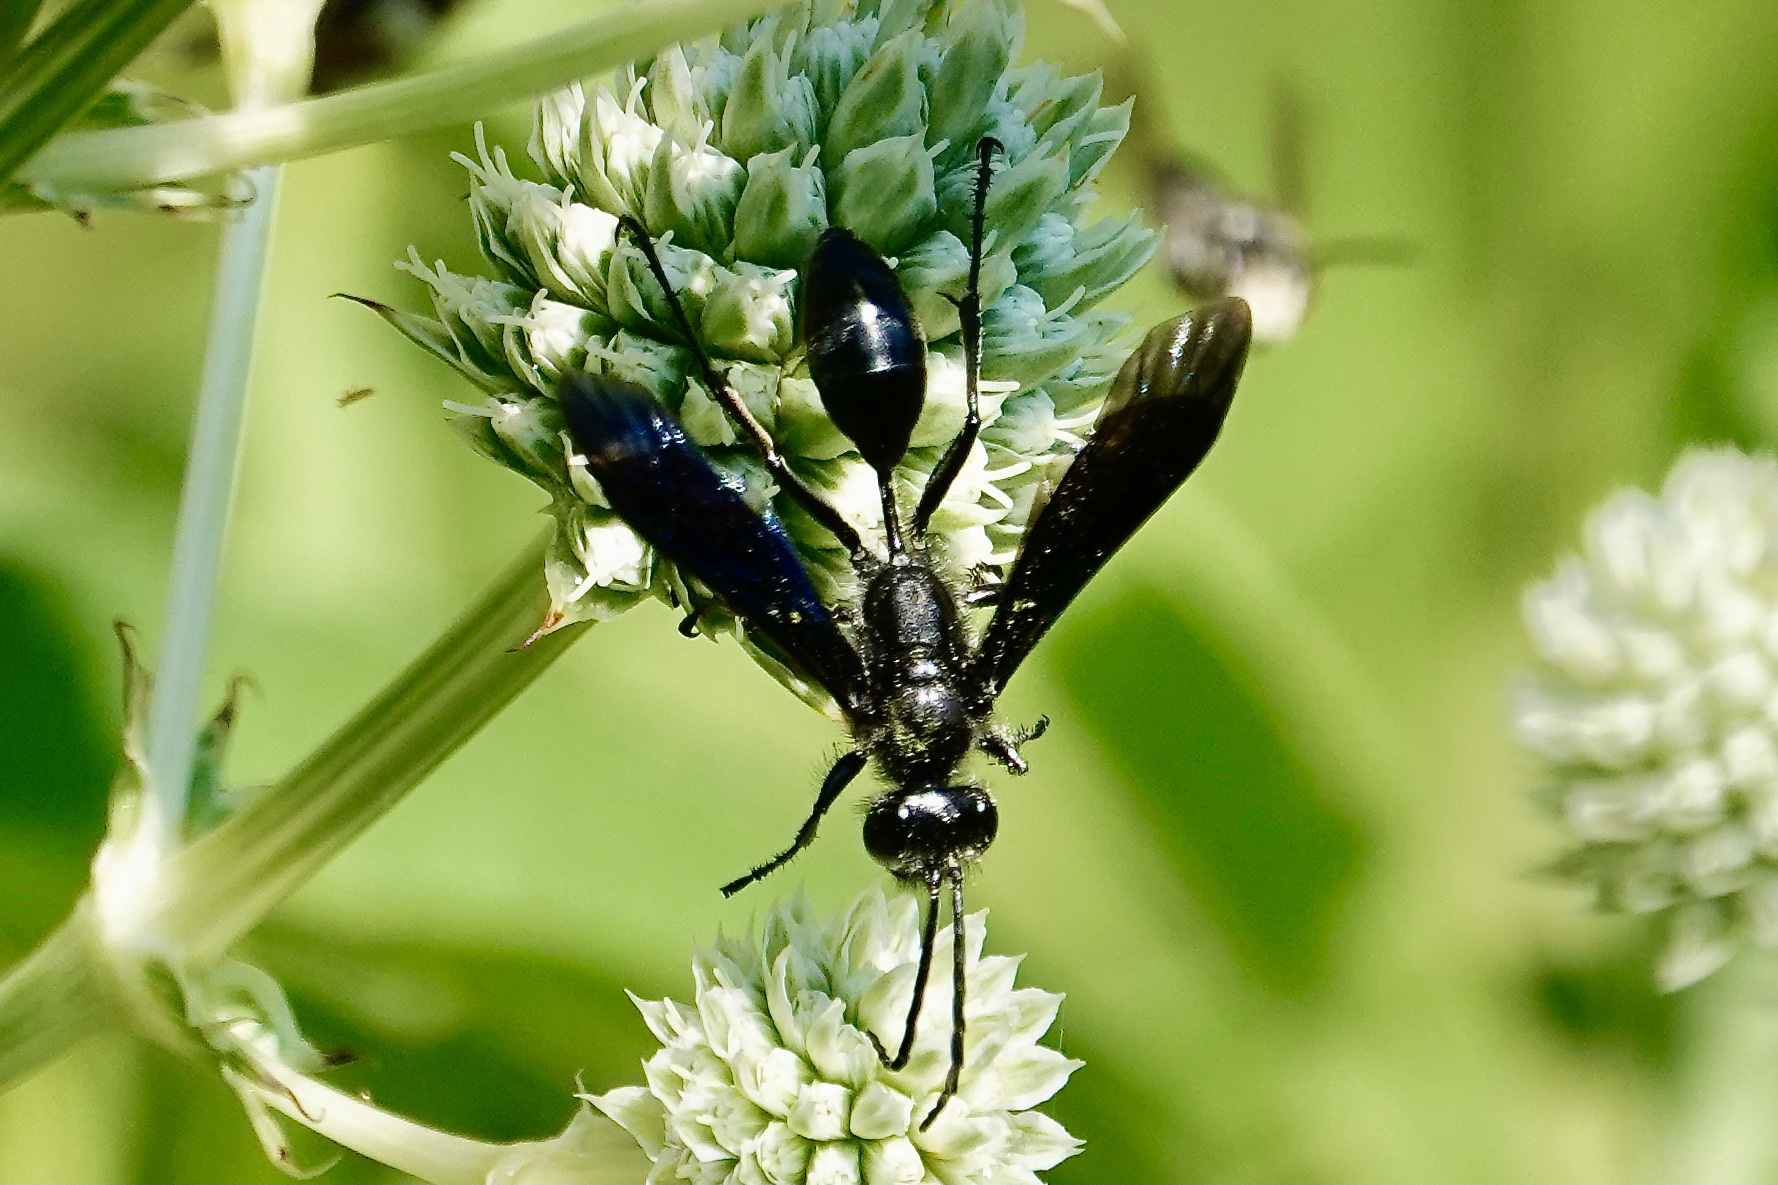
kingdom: Animalia
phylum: Arthropoda
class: Insecta
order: Hymenoptera
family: Sphecidae
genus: Isodontia
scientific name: Isodontia philadelphica
